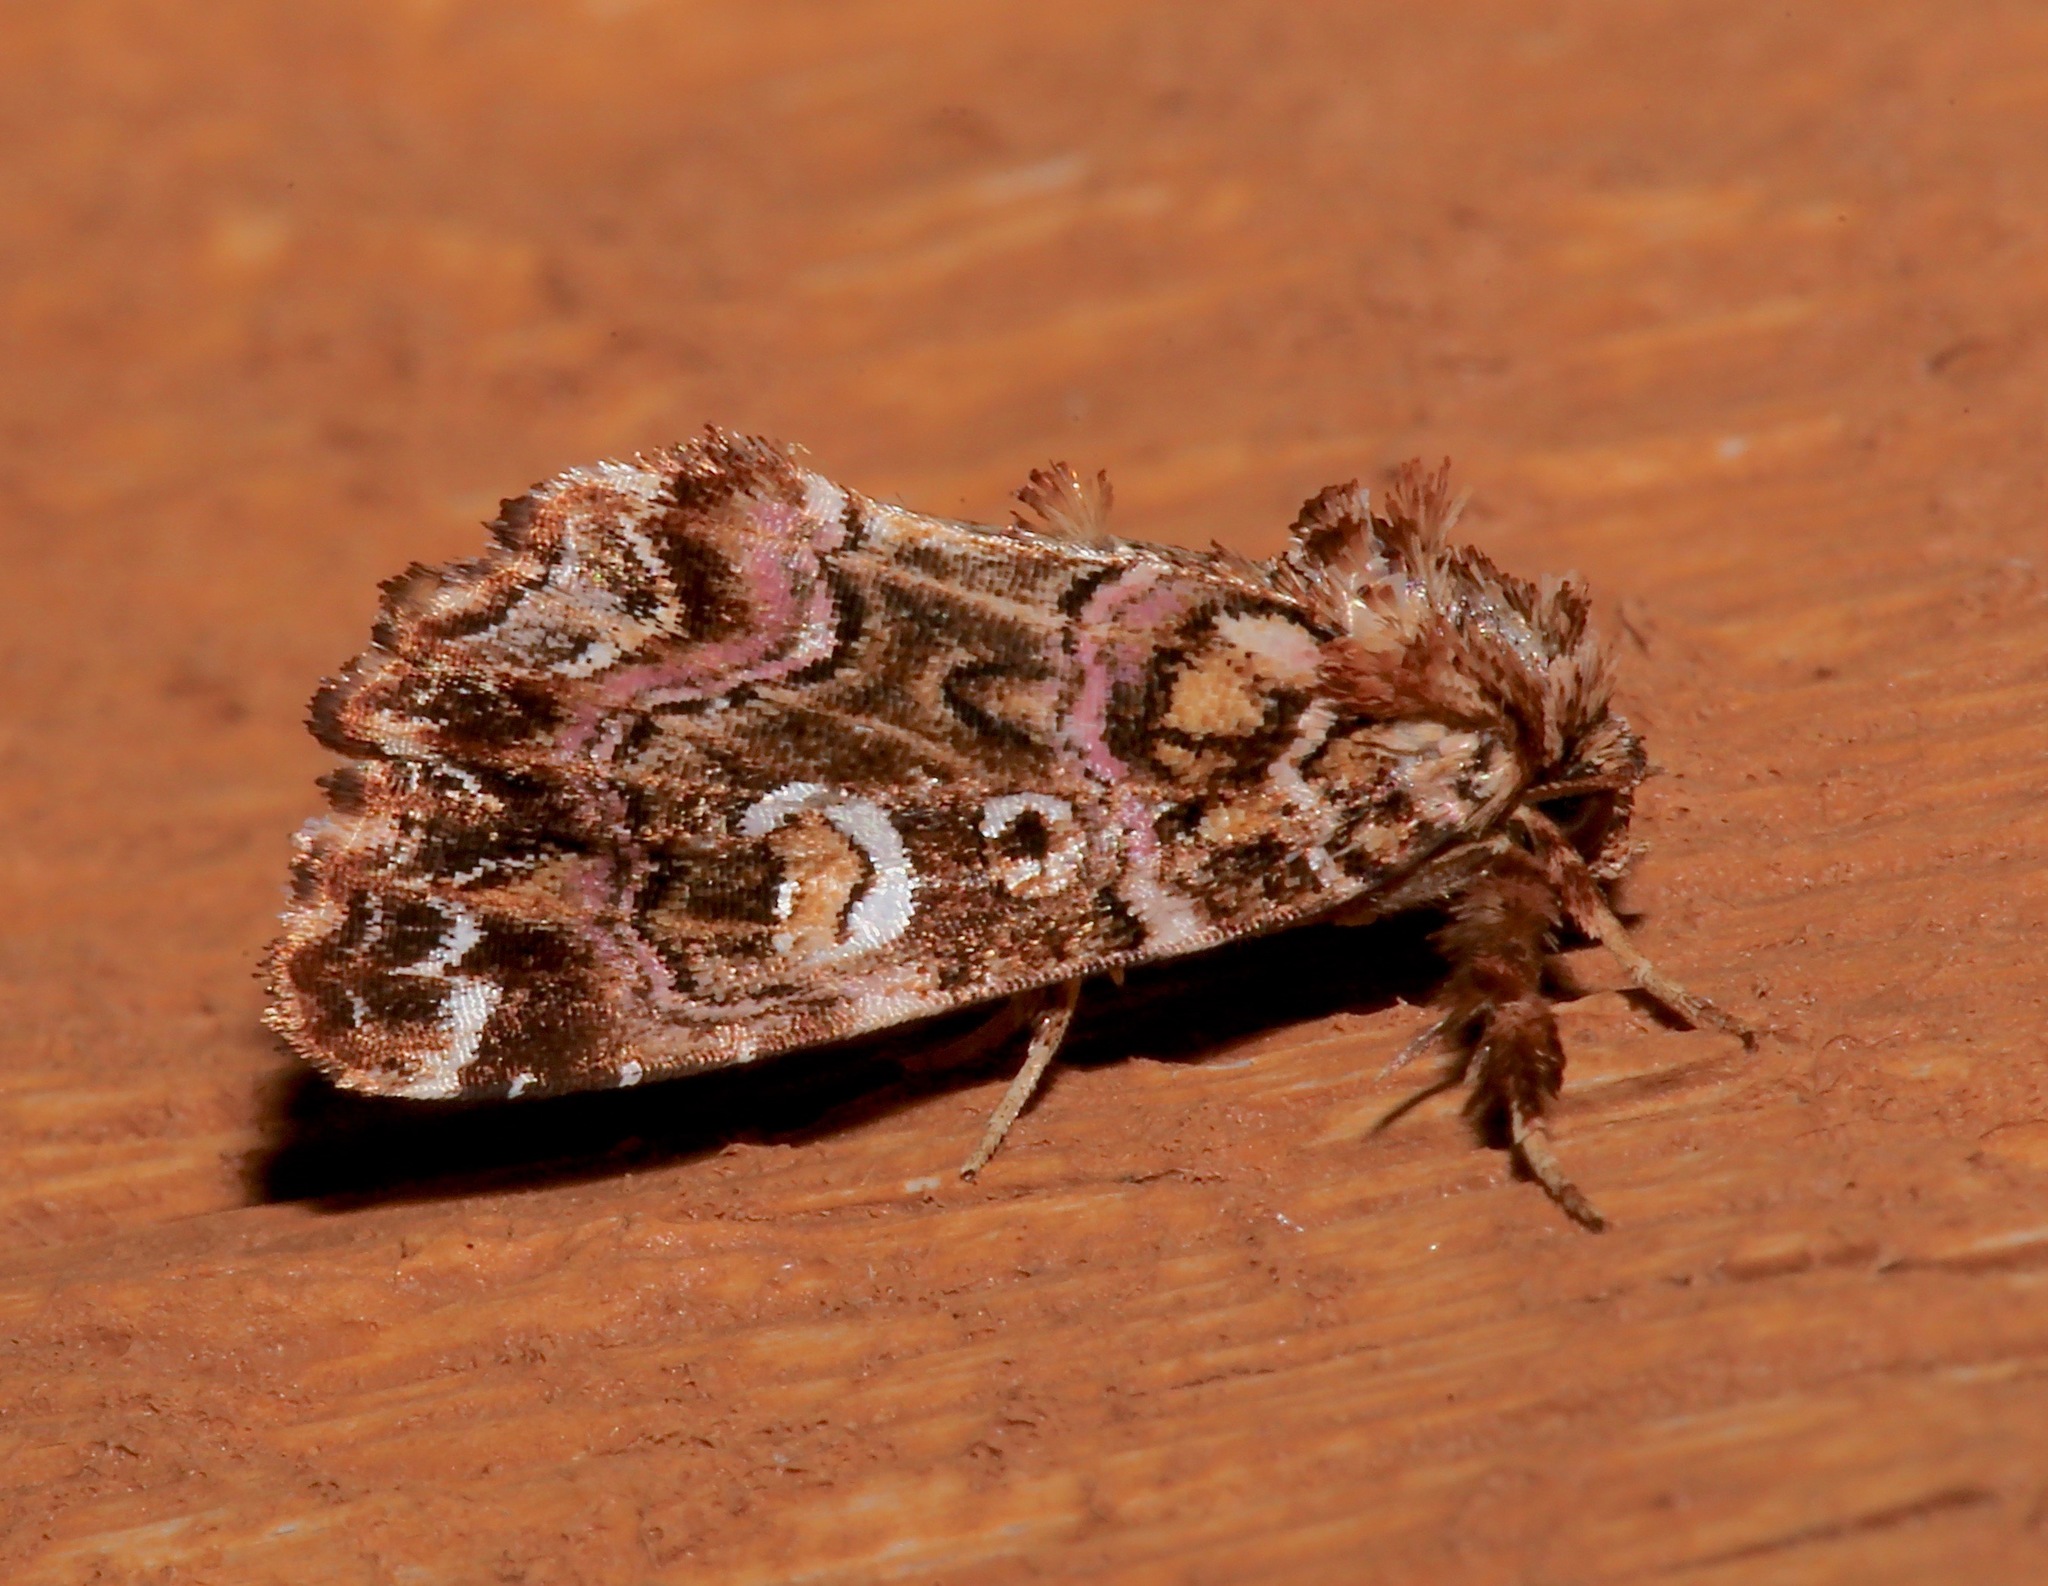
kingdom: Animalia
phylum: Arthropoda
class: Insecta
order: Lepidoptera
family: Noctuidae
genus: Callopistria
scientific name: Callopistria mollissima
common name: Pink-shaded fern moth
